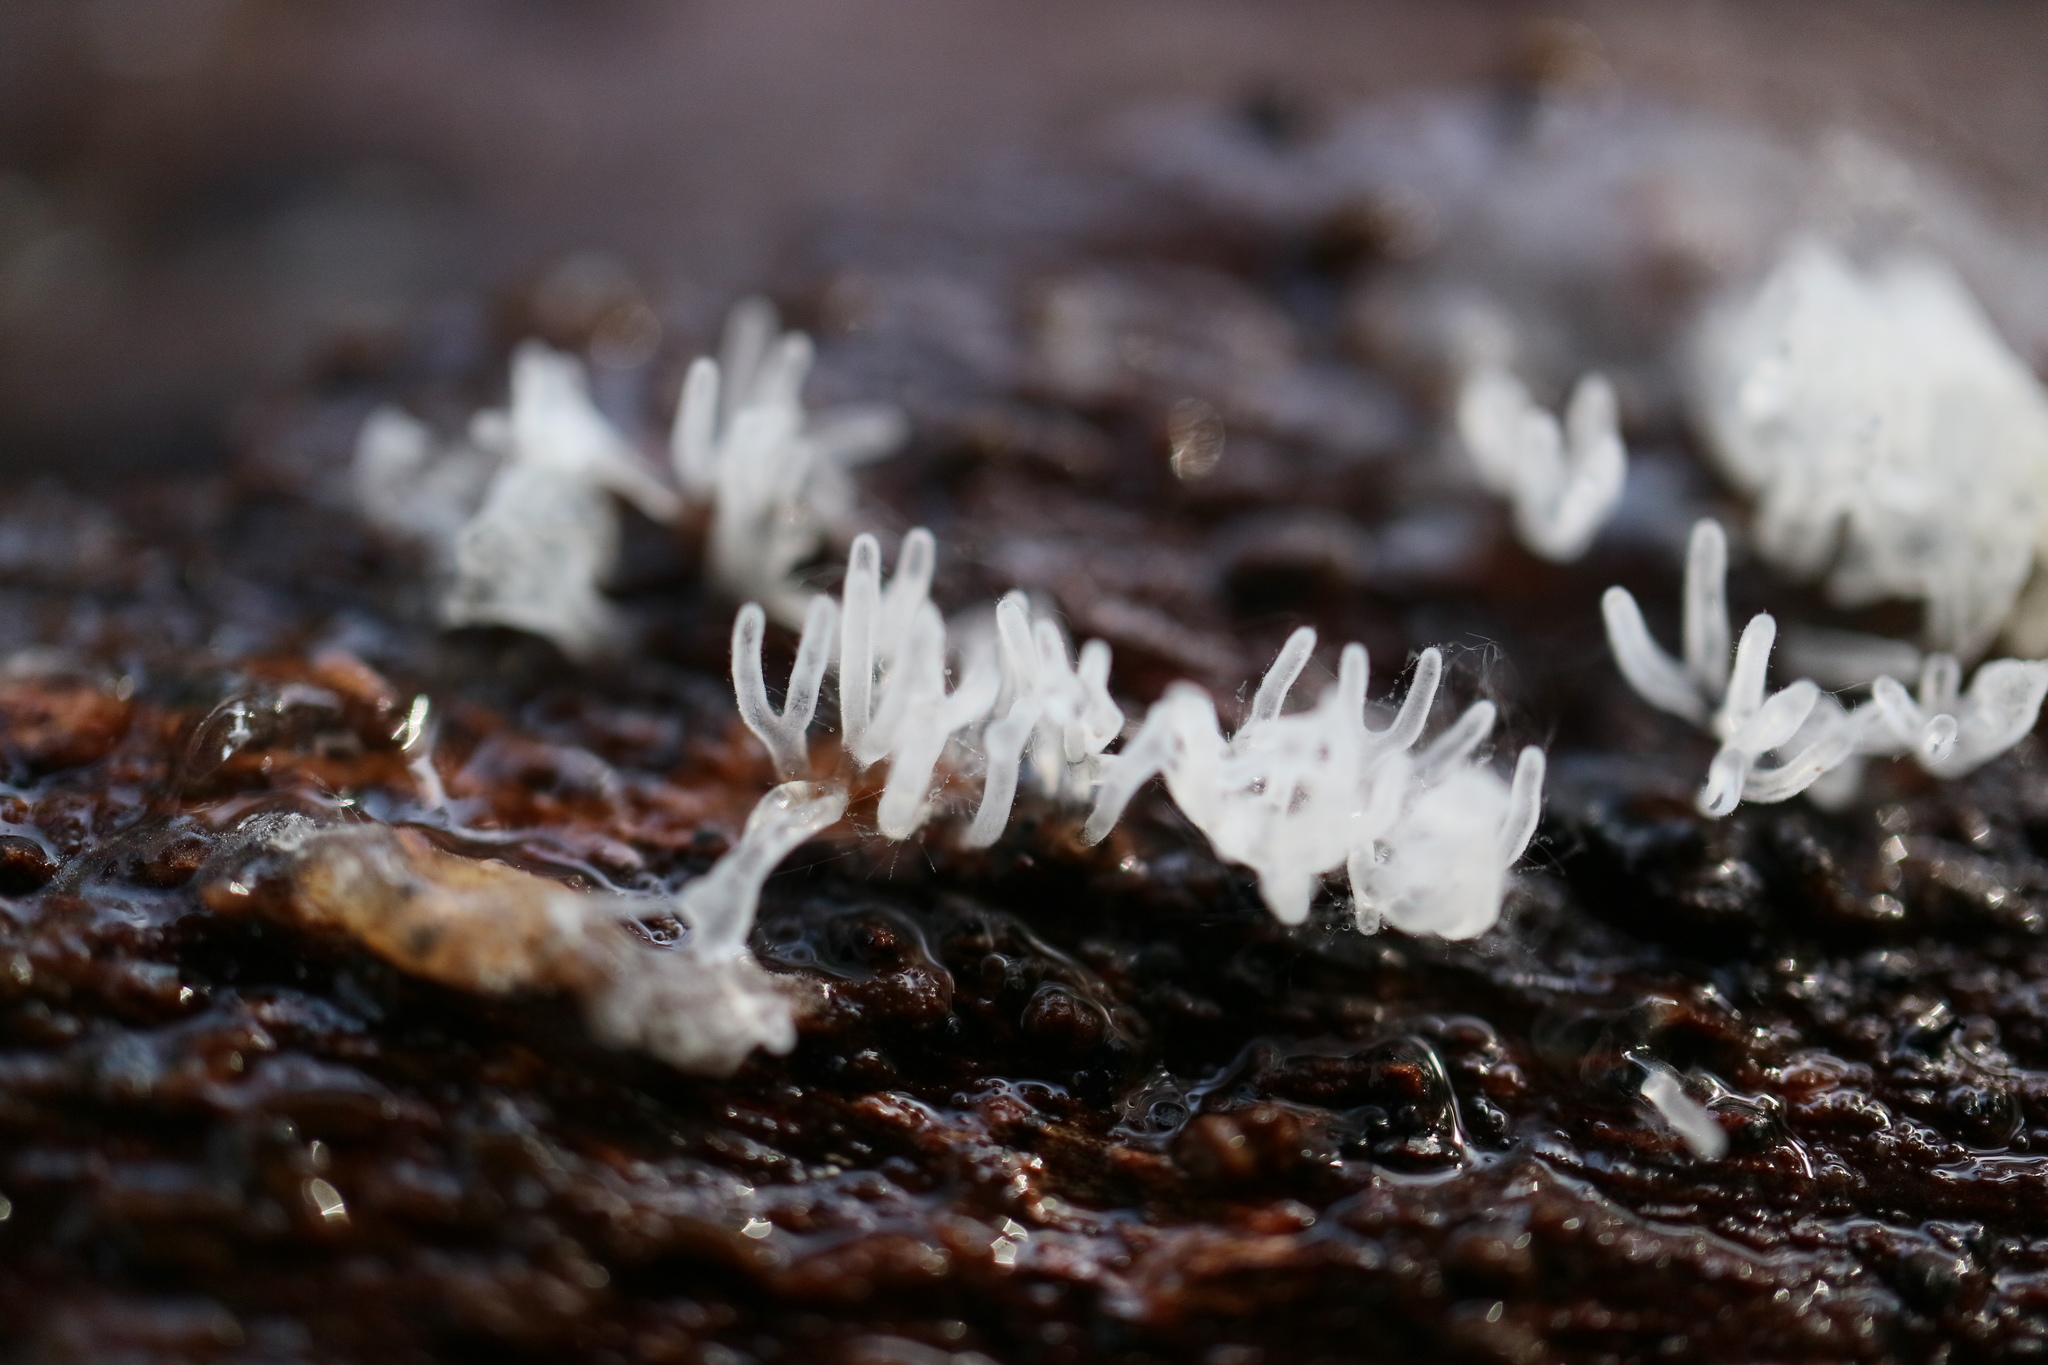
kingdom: Protozoa
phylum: Mycetozoa
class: Protosteliomycetes
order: Ceratiomyxales
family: Ceratiomyxaceae
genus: Ceratiomyxa
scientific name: Ceratiomyxa fruticulosa
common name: Honeycomb coral slime mold
